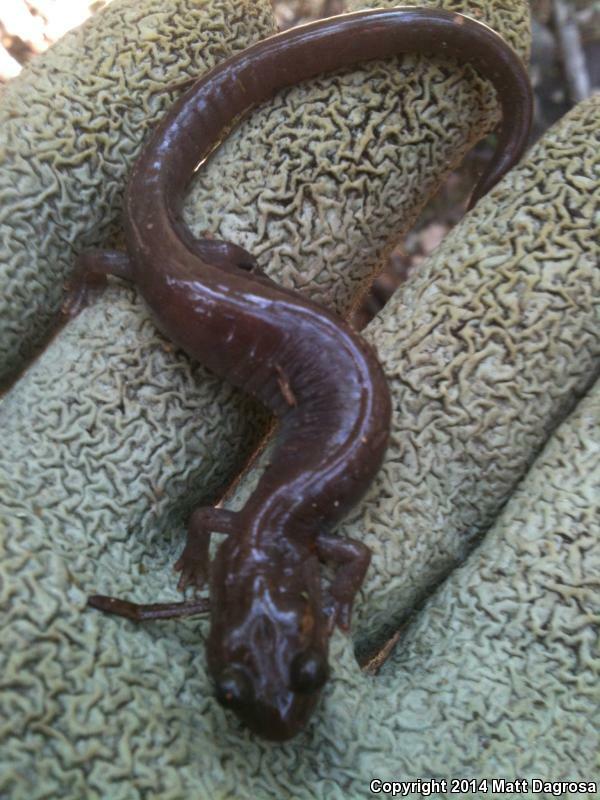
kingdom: Animalia
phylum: Chordata
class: Amphibia
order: Caudata
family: Plethodontidae
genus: Plethodon
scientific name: Plethodon stormi
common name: Siskiyou mountains salamander
